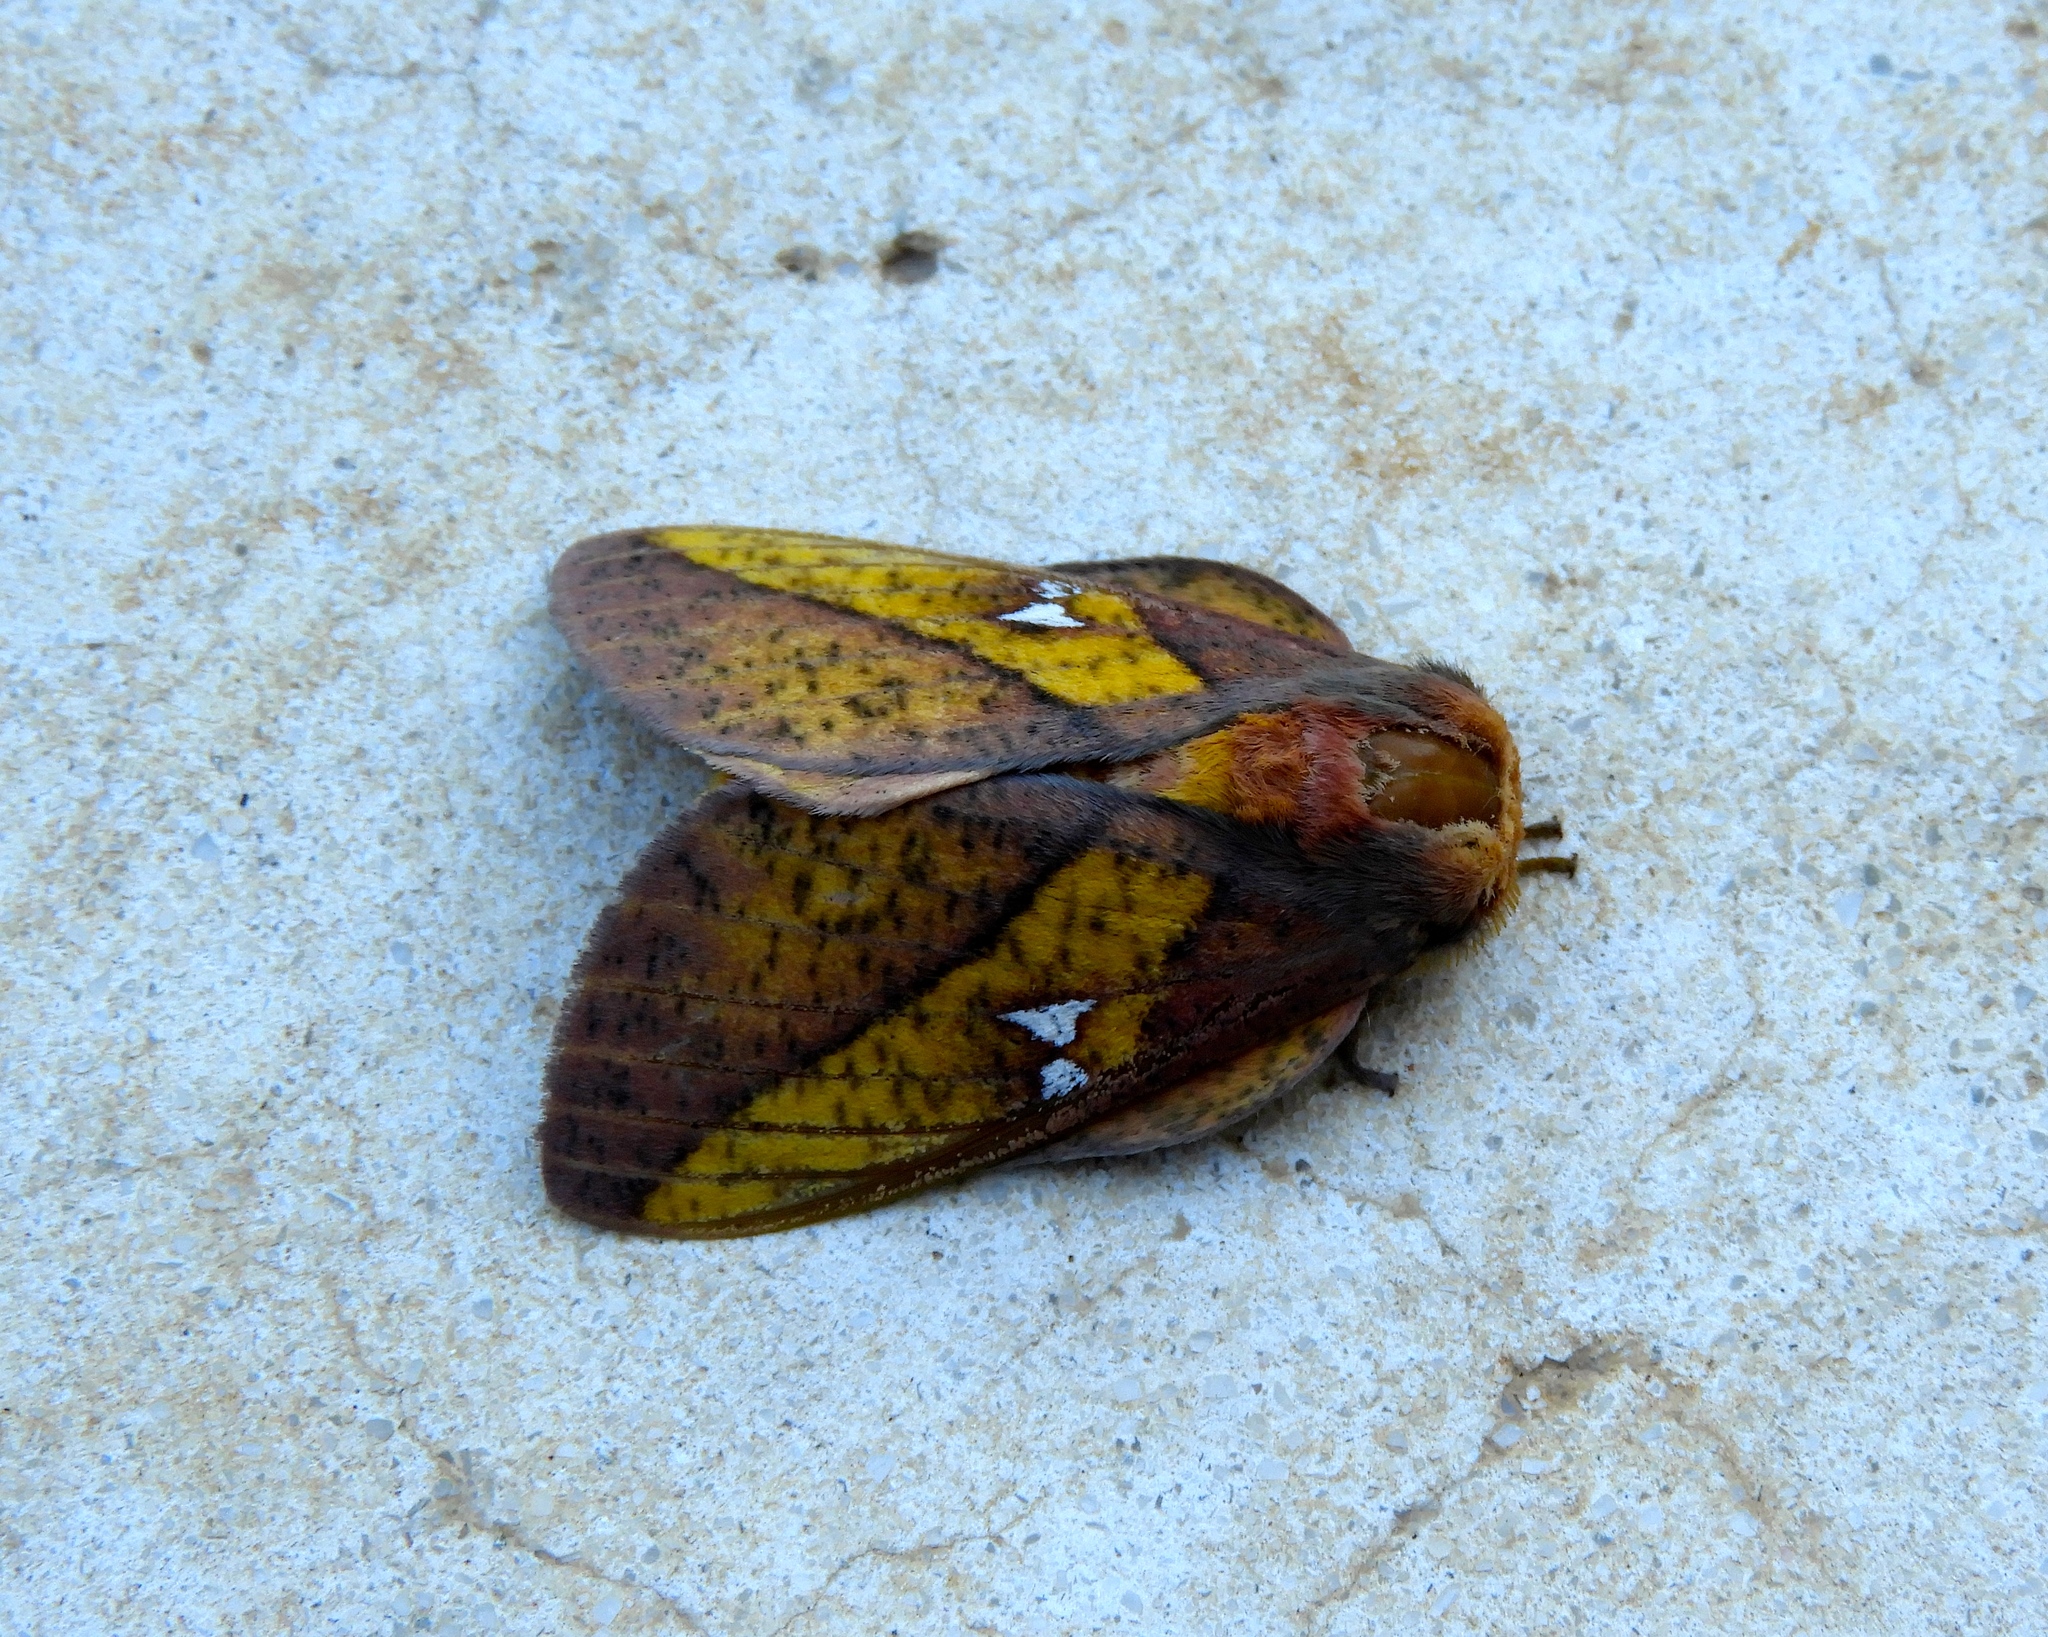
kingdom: Animalia
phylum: Arthropoda
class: Insecta
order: Lepidoptera
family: Saturniidae
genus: Syssphinx
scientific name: Syssphinx
